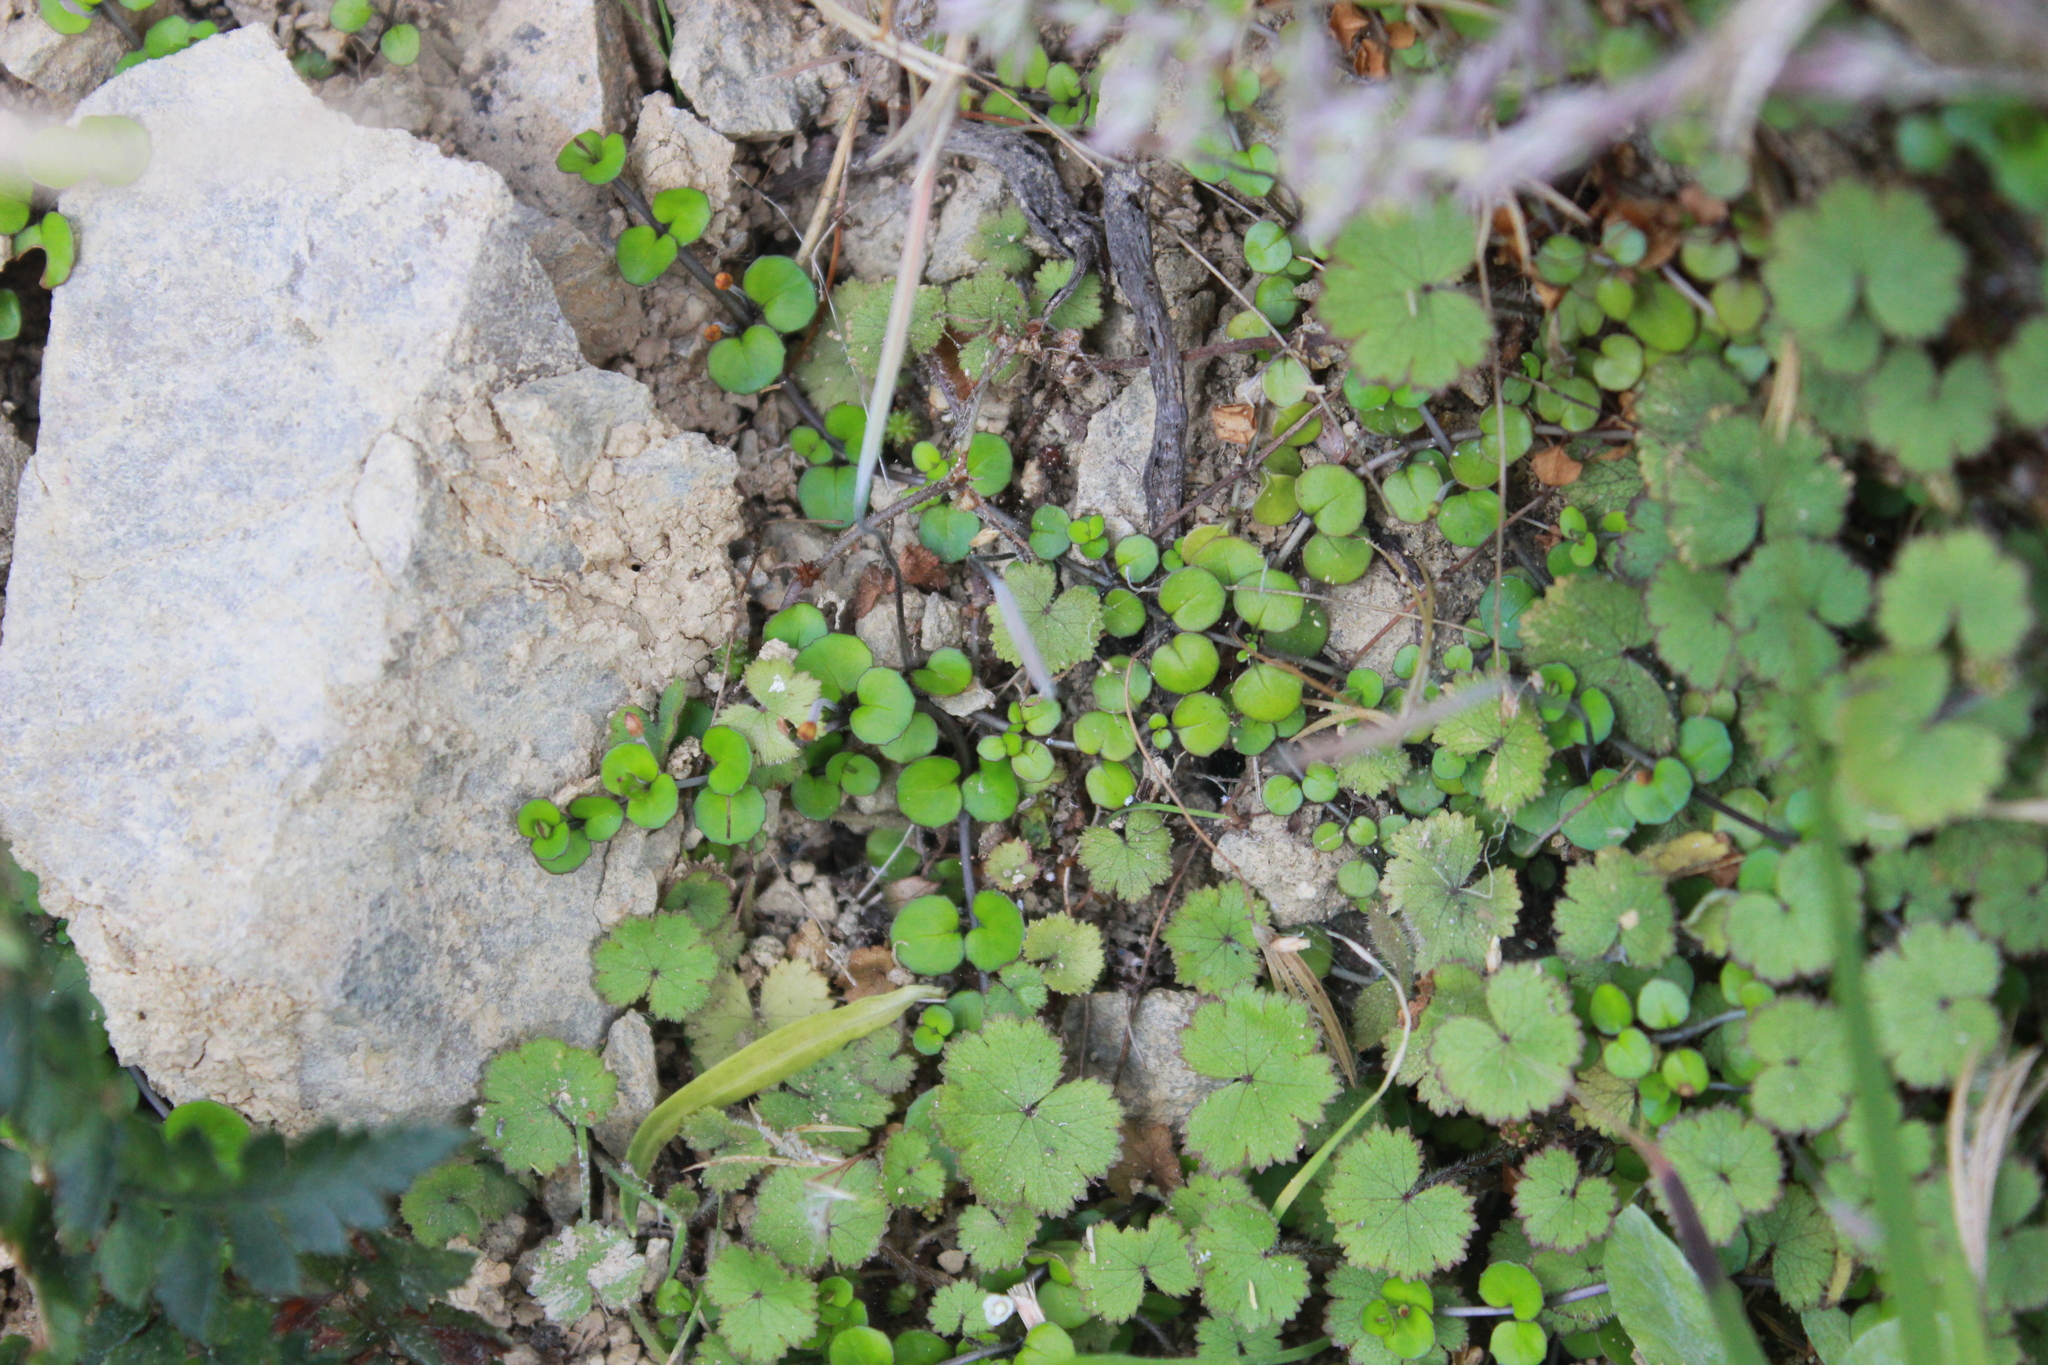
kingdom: Plantae
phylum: Tracheophyta
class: Magnoliopsida
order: Myrtales
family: Onagraceae
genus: Epilobium
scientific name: Epilobium nummularifolium
